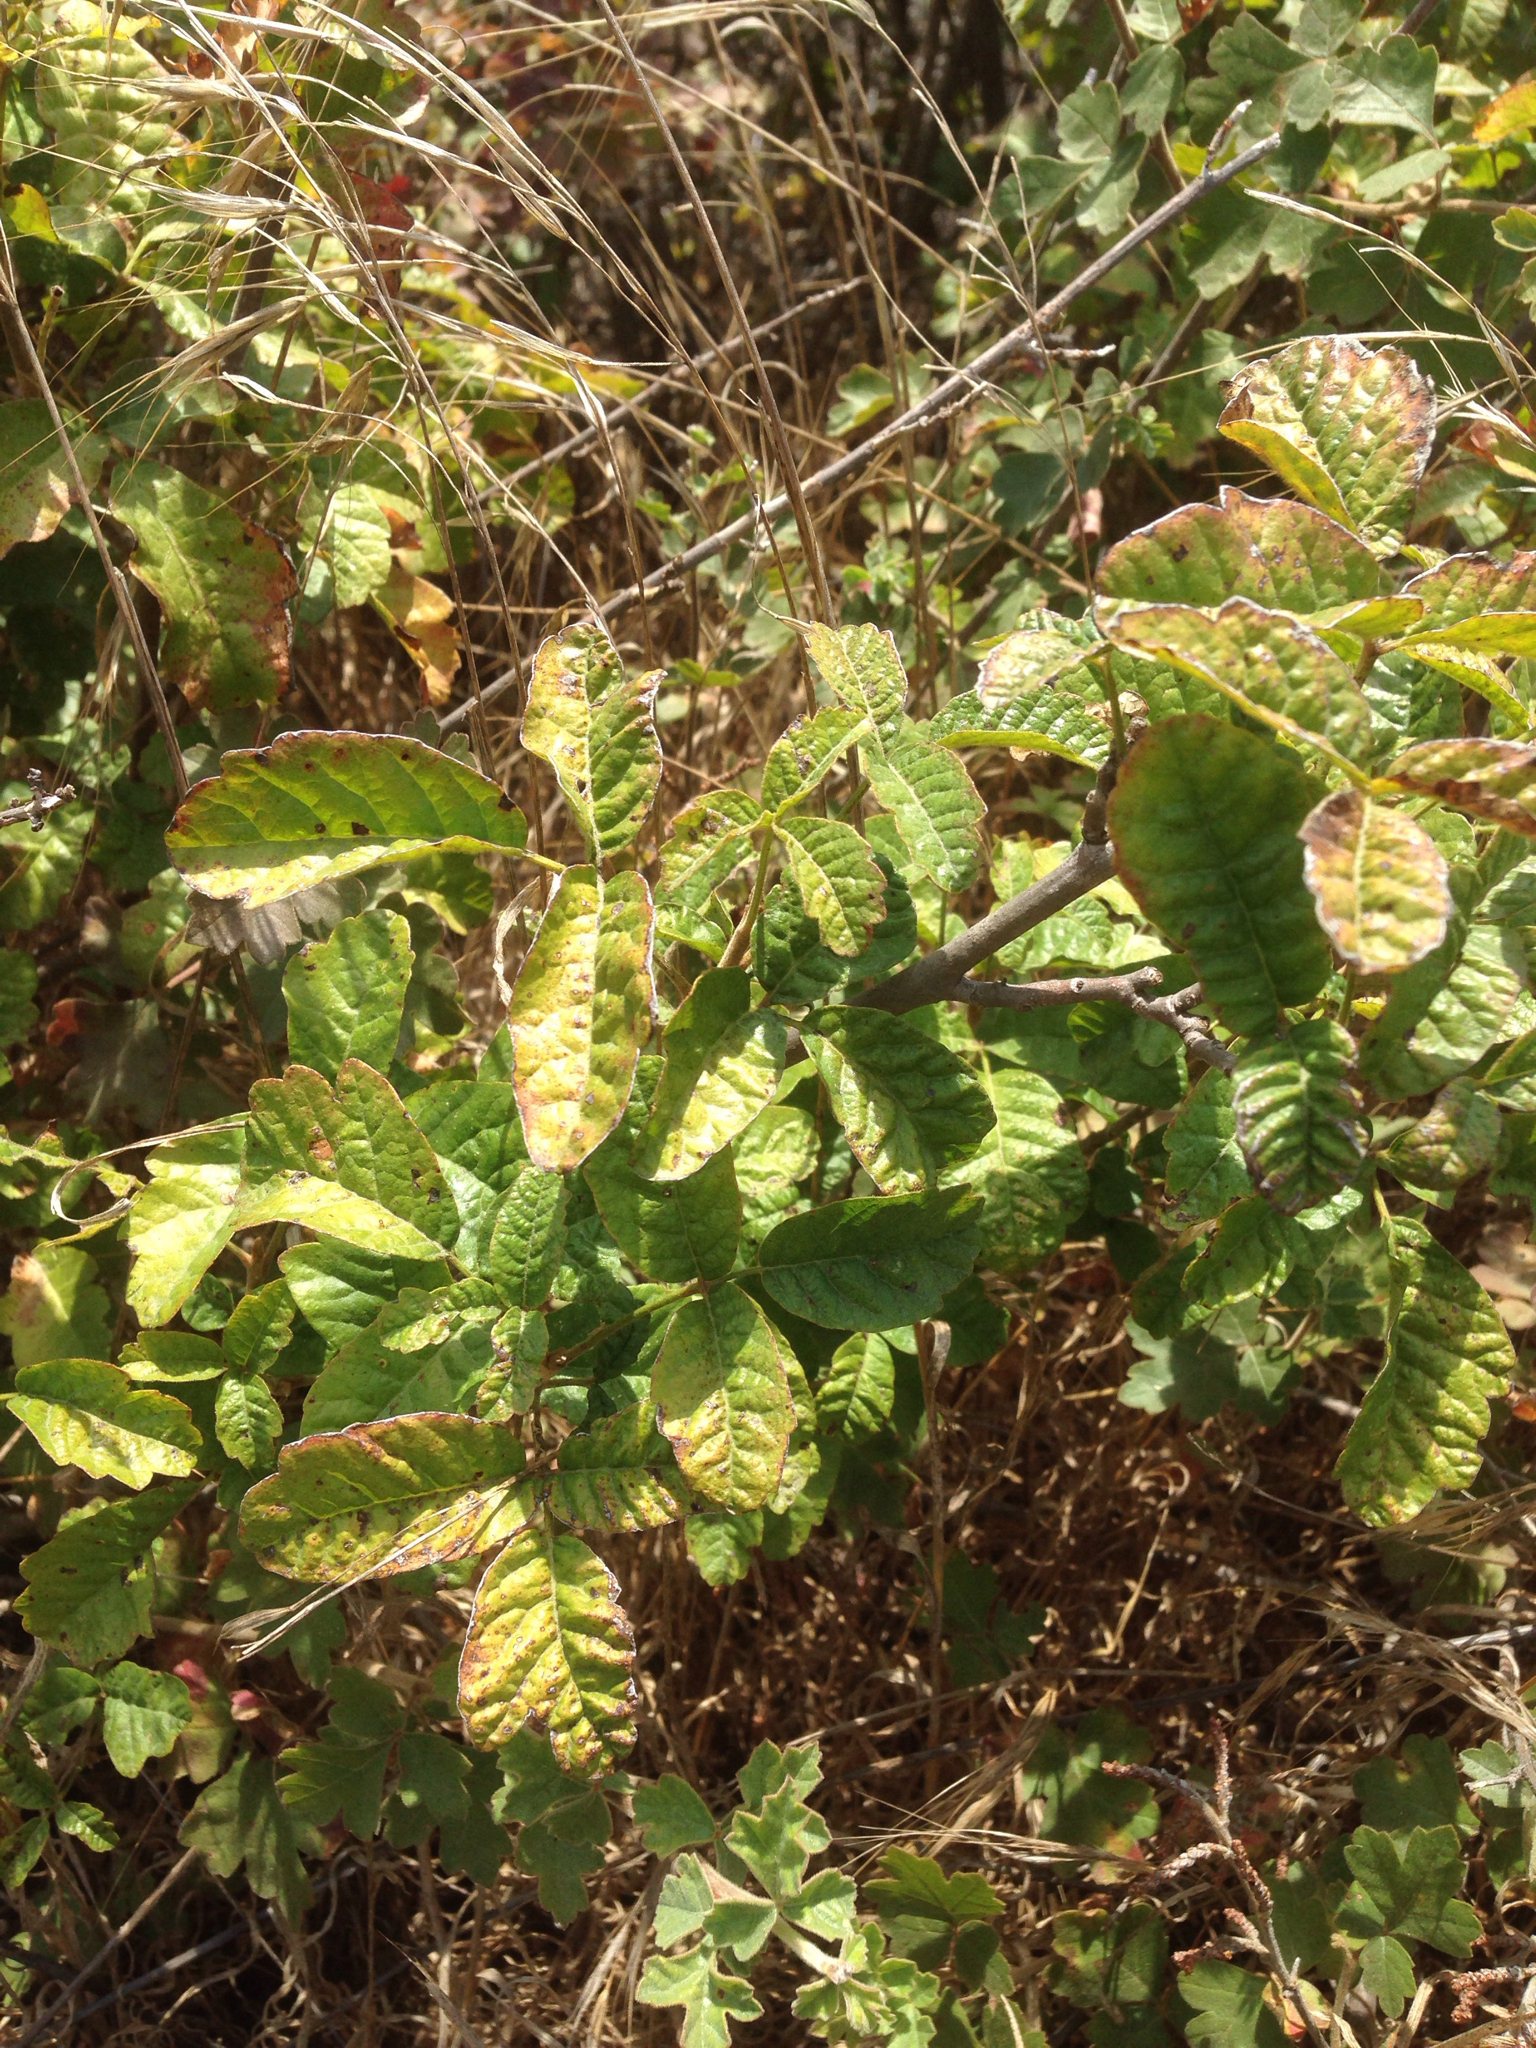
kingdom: Plantae
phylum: Tracheophyta
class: Magnoliopsida
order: Sapindales
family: Anacardiaceae
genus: Toxicodendron
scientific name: Toxicodendron diversilobum
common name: Pacific poison-oak
